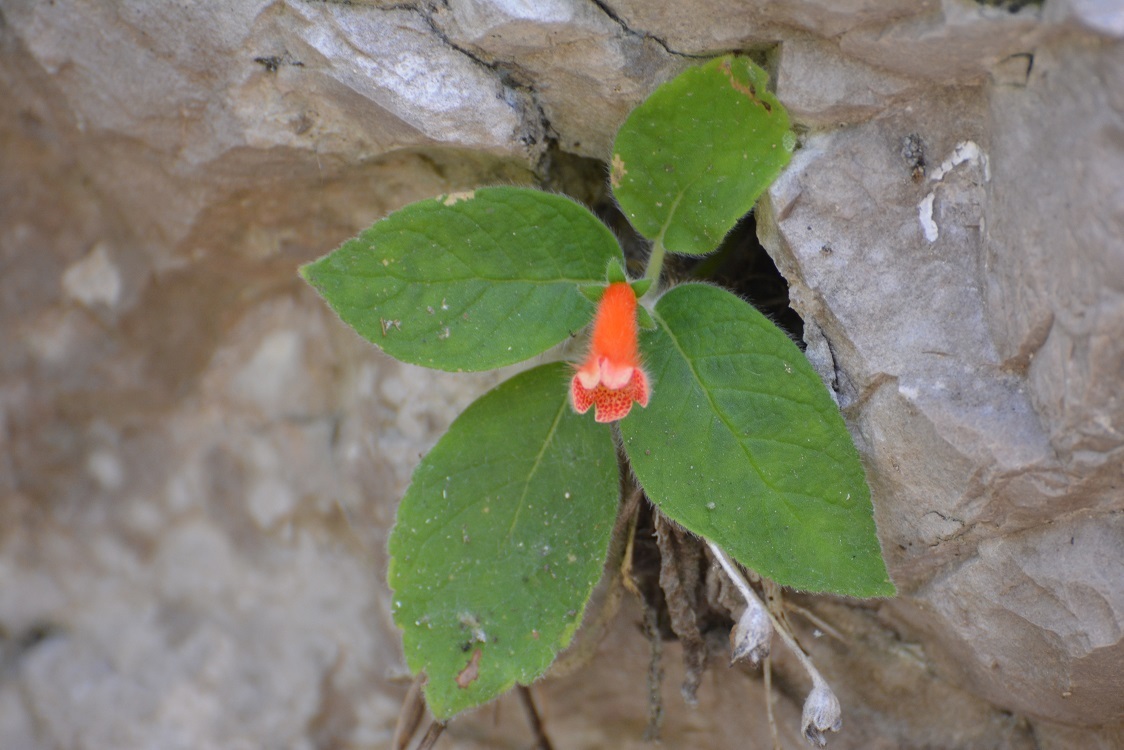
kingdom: Plantae
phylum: Tracheophyta
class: Magnoliopsida
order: Lamiales
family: Gesneriaceae
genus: Kohleria
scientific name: Kohleria rugata
